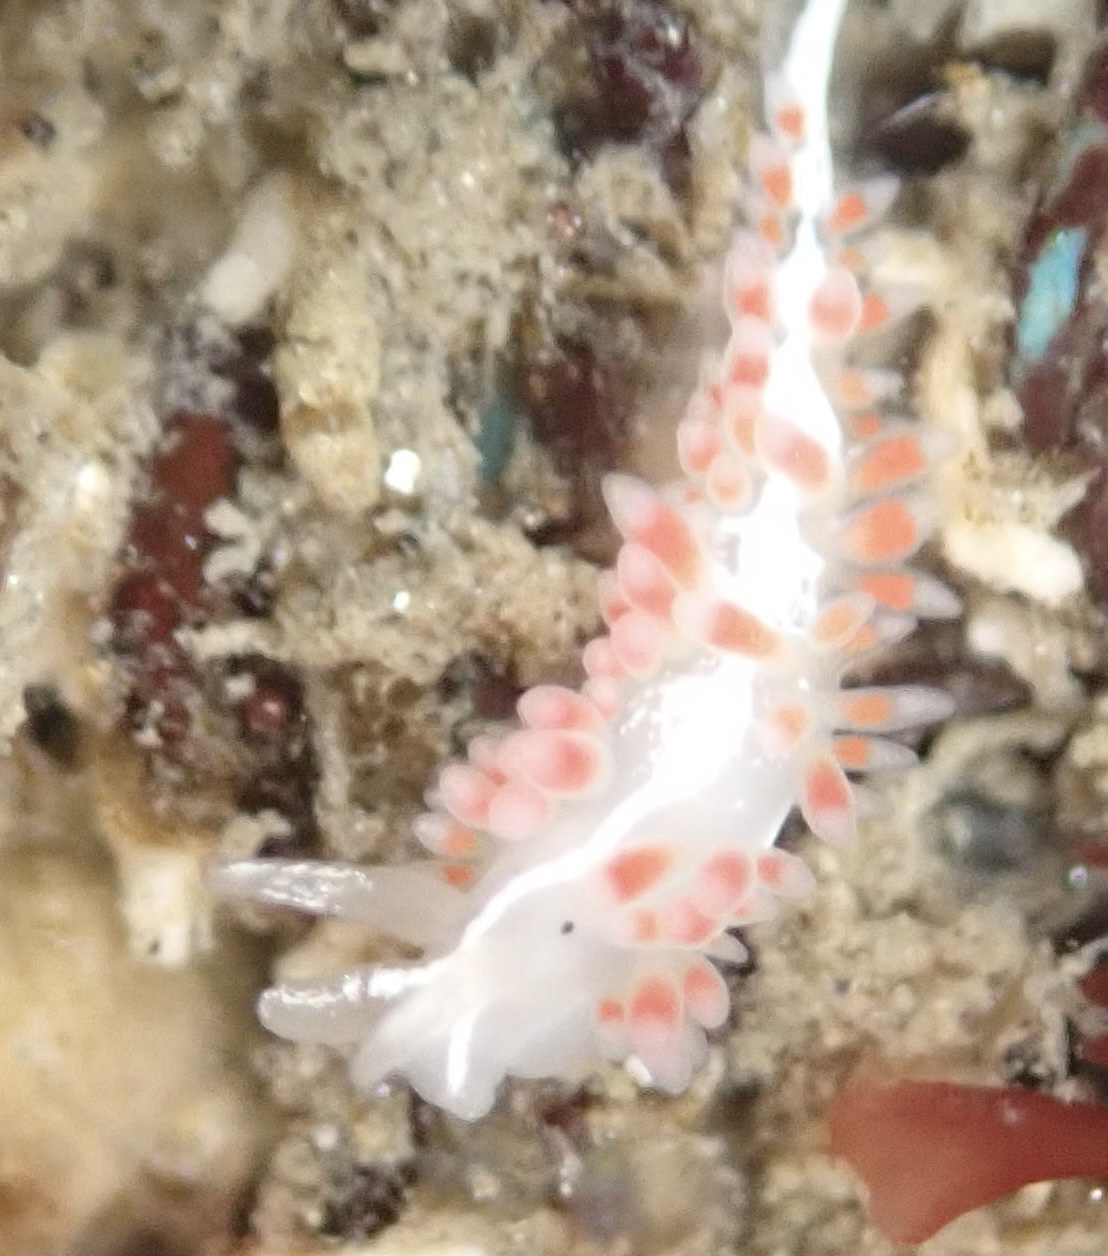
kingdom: Animalia
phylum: Mollusca
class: Gastropoda
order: Nudibranchia
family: Coryphellidae
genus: Coryphella
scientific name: Coryphella cooperi
